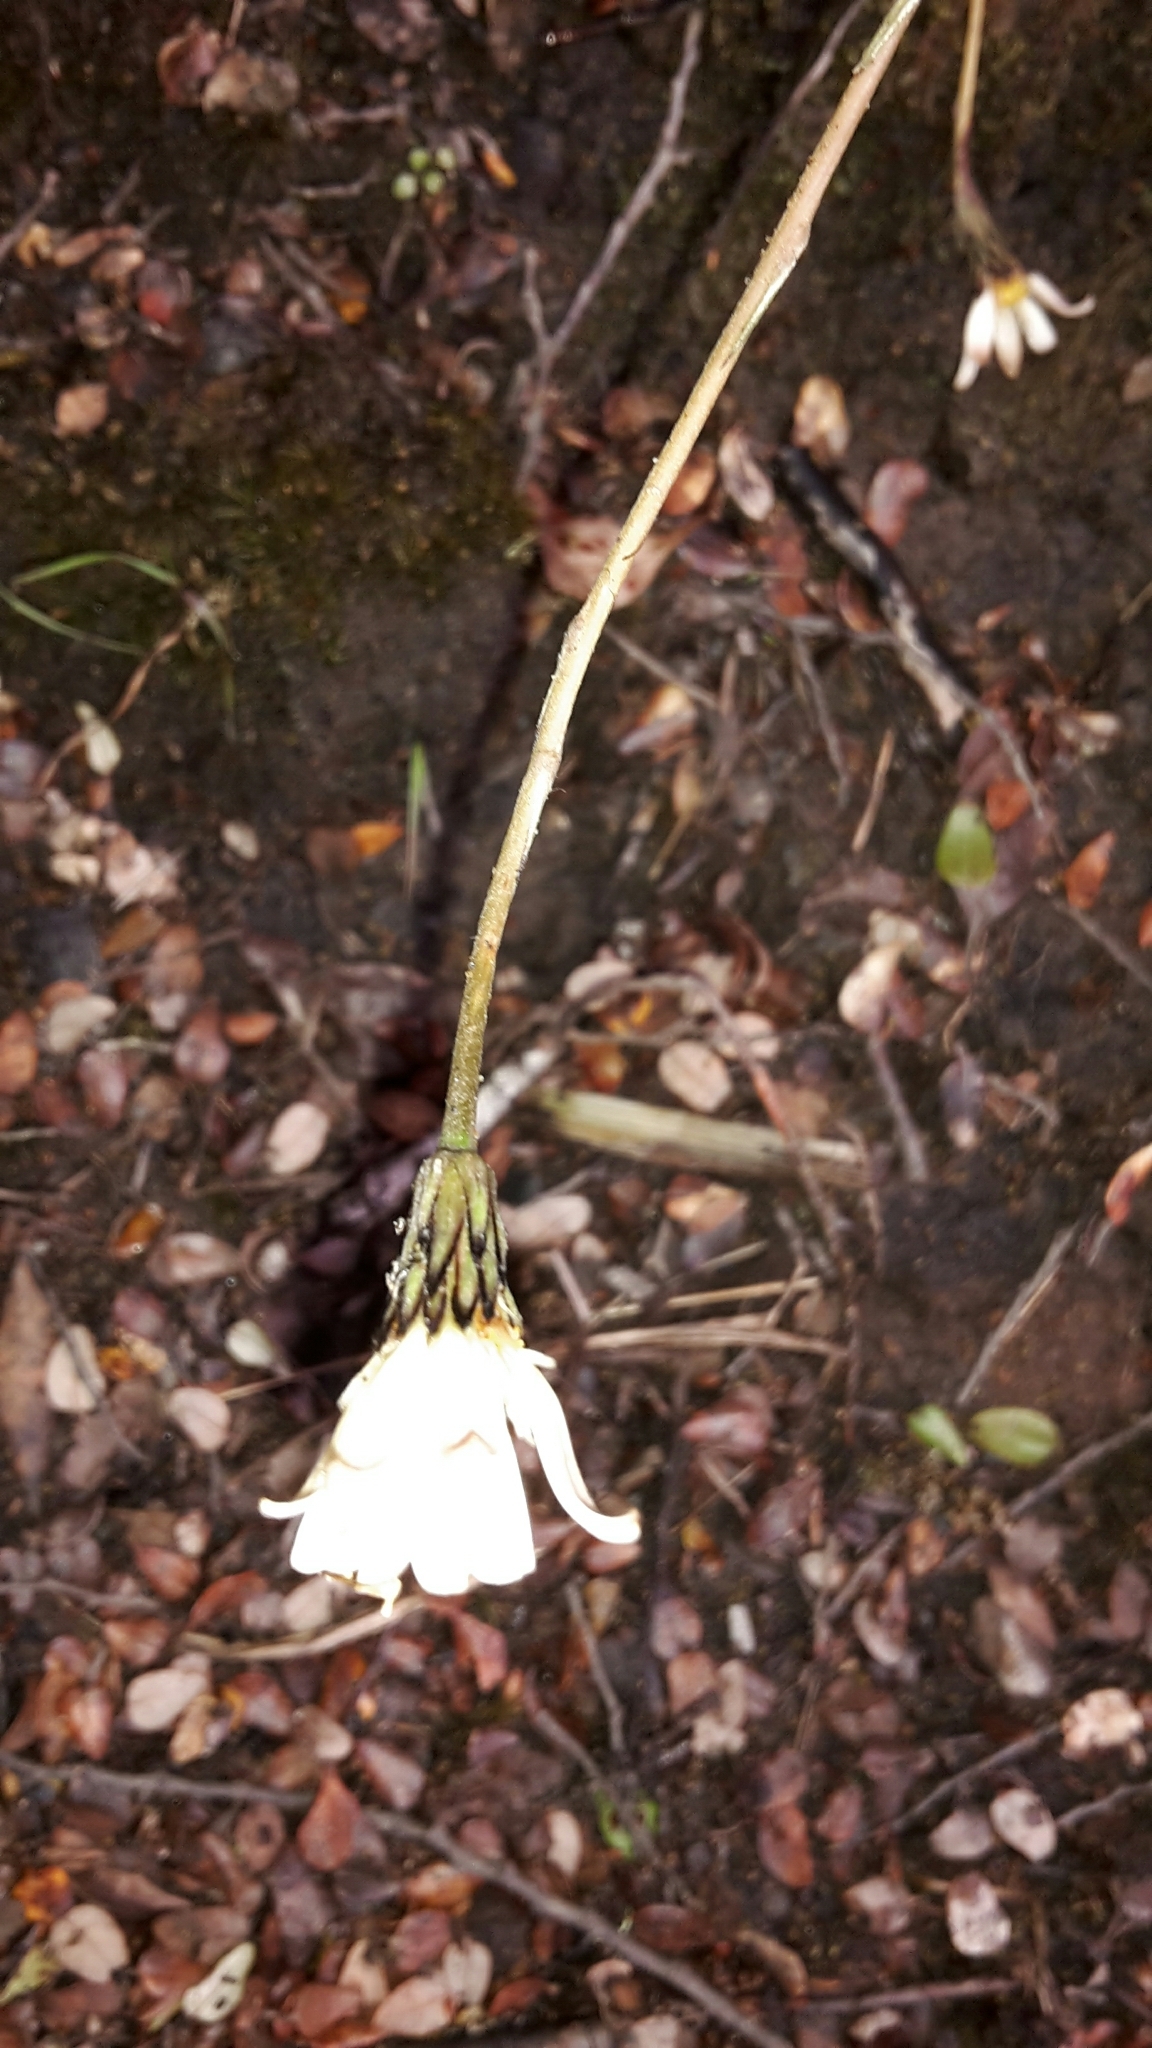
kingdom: Plantae
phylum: Tracheophyta
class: Magnoliopsida
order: Asterales
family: Asteraceae
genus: Celmisia
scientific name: Celmisia gracilenta
